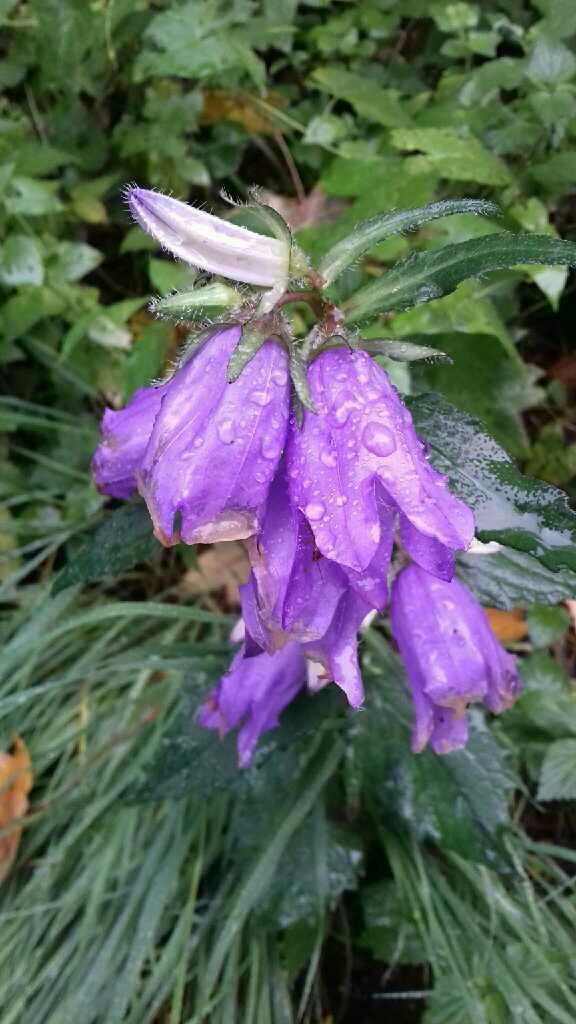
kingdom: Plantae
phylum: Tracheophyta
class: Magnoliopsida
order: Asterales
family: Campanulaceae
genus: Campanula
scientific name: Campanula trachelium
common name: Nettle-leaved bellflower
